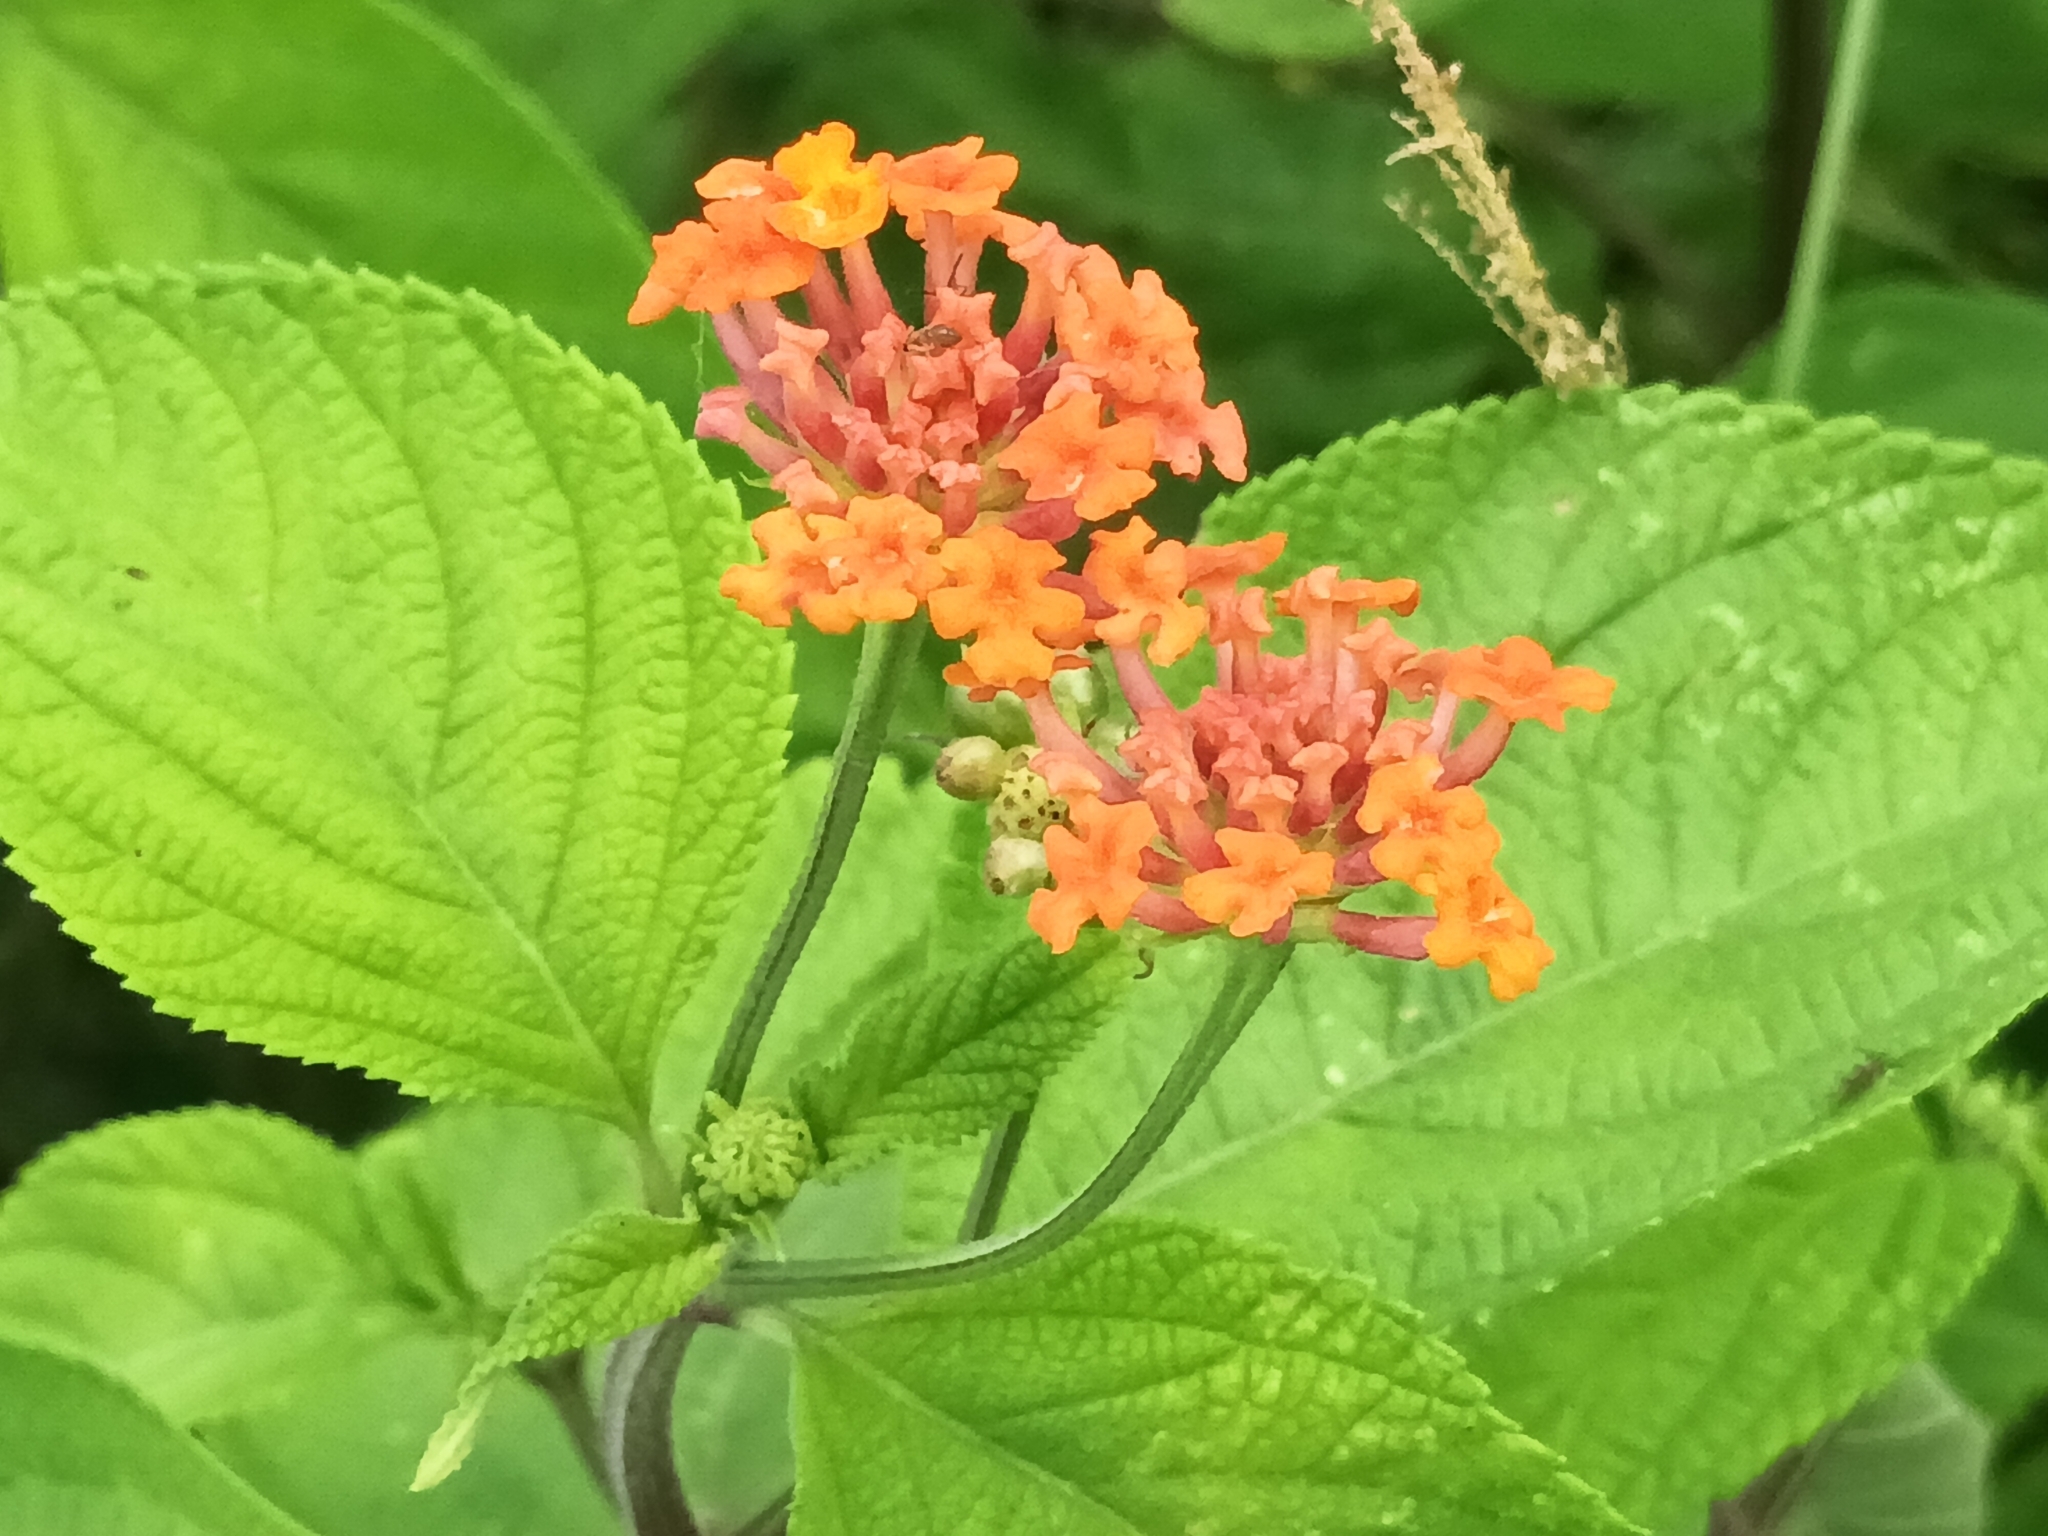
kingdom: Plantae
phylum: Tracheophyta
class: Magnoliopsida
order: Lamiales
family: Verbenaceae
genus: Lantana
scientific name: Lantana horrida
